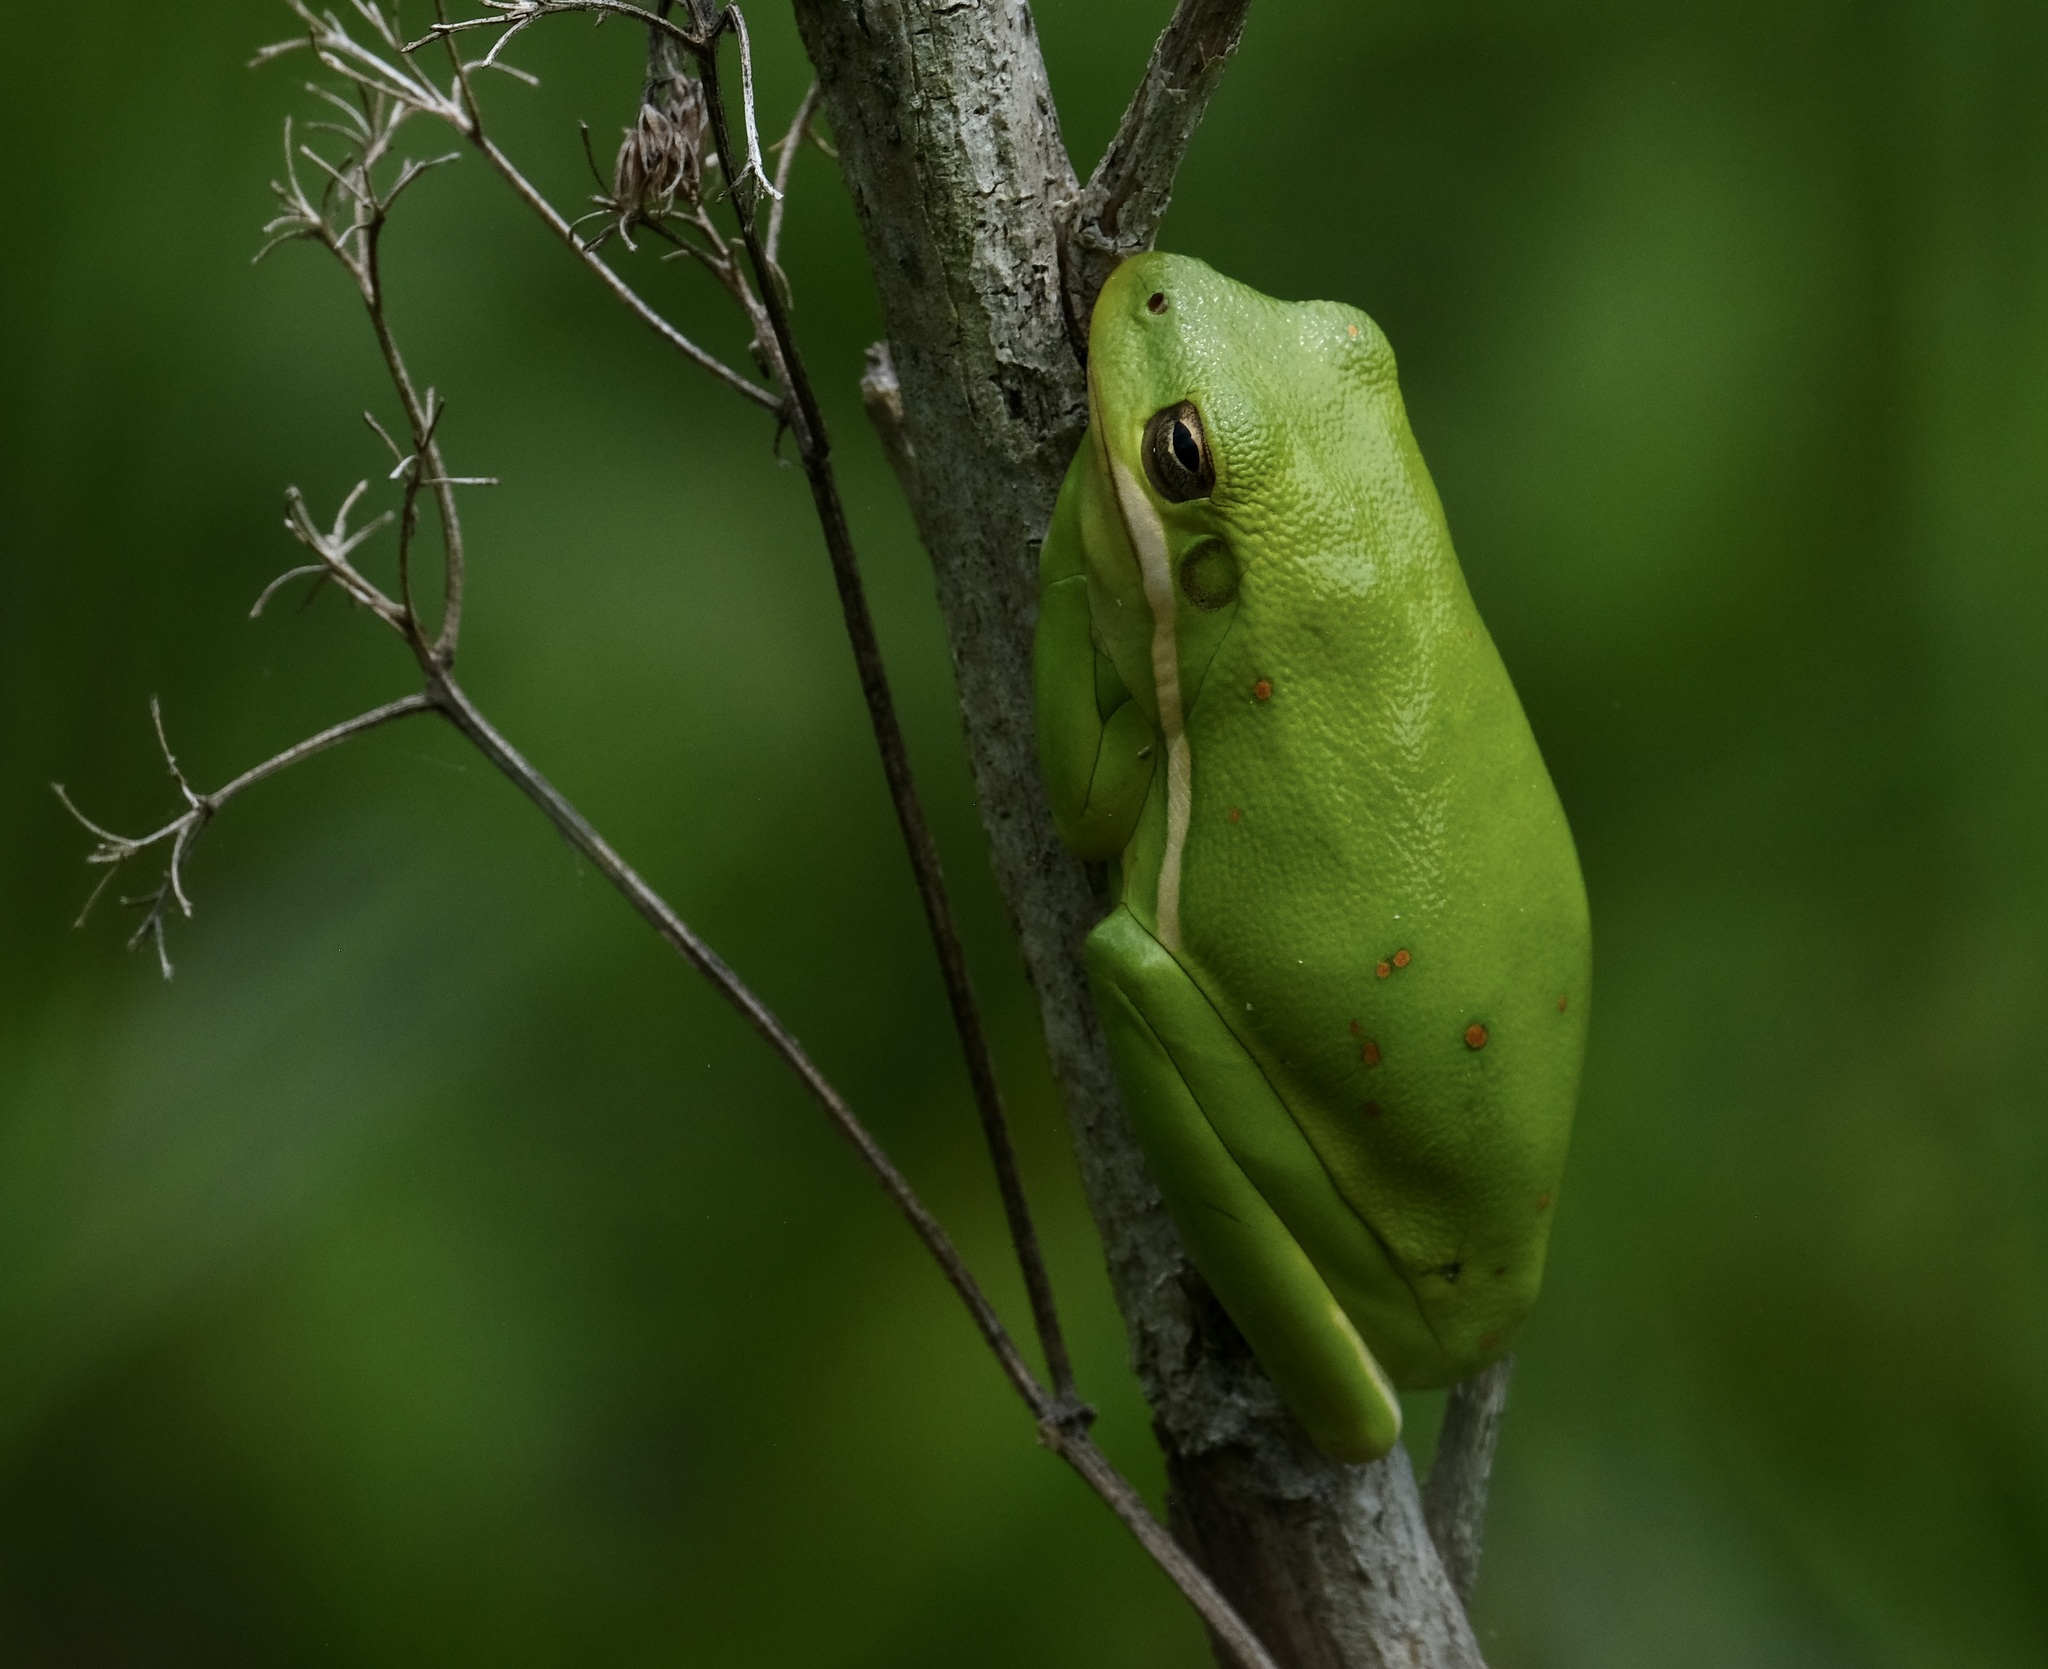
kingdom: Animalia
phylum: Chordata
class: Amphibia
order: Anura
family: Hylidae
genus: Dryophytes
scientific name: Dryophytes cinereus
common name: Green treefrog
